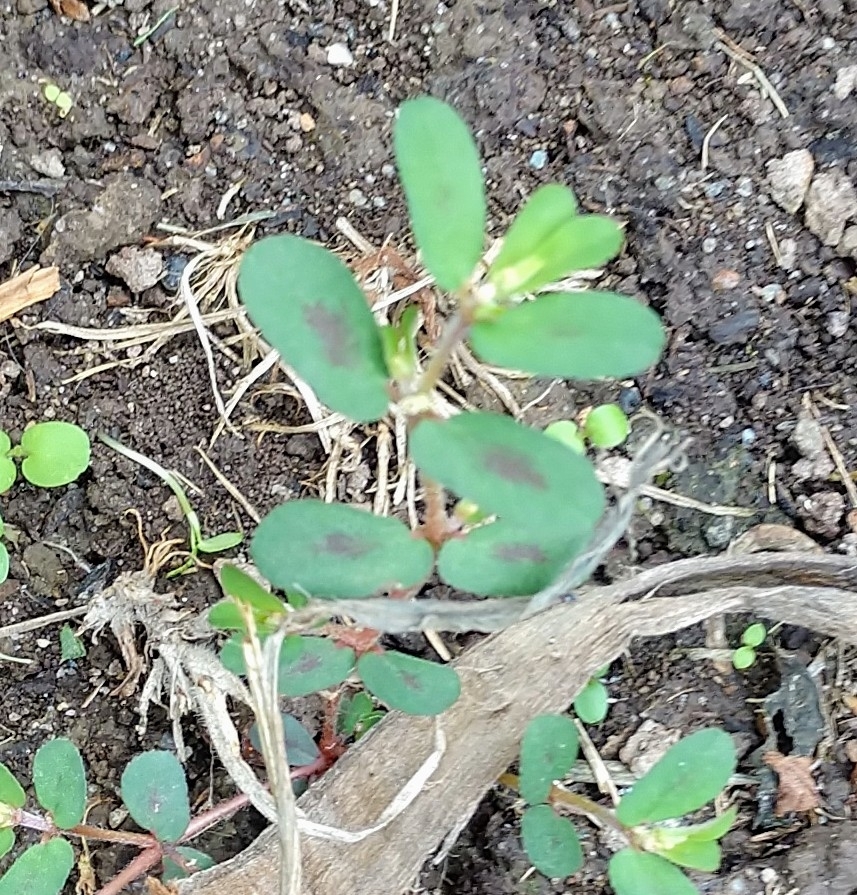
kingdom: Plantae
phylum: Tracheophyta
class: Magnoliopsida
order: Malpighiales
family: Euphorbiaceae
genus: Euphorbia
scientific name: Euphorbia maculata
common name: Spotted spurge
